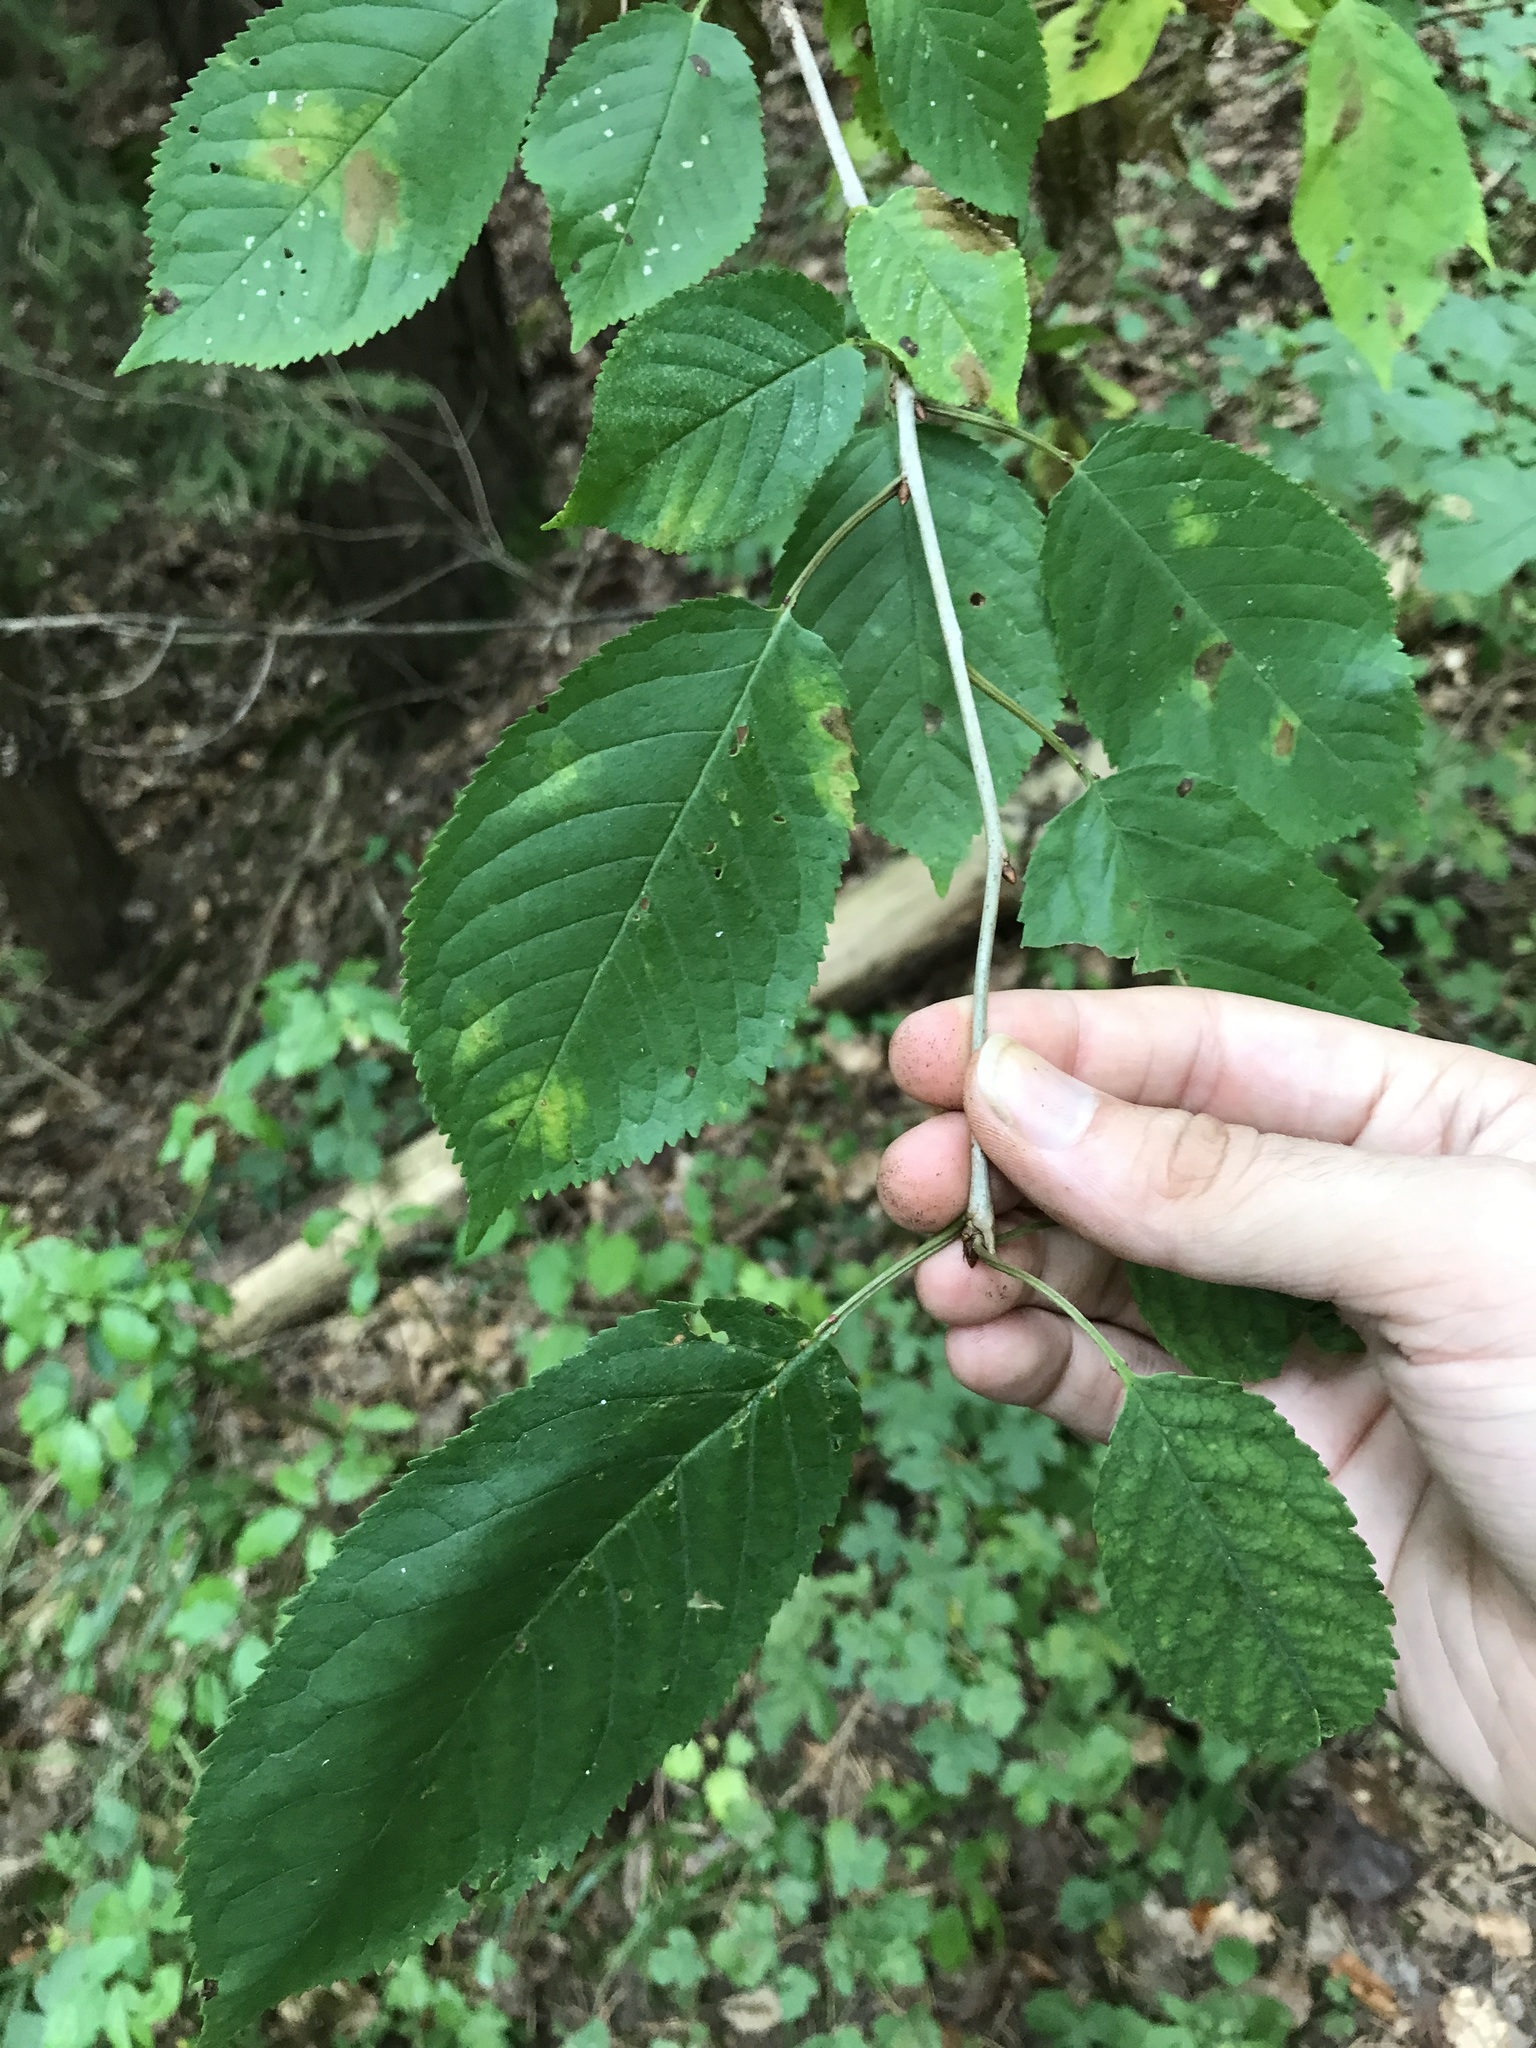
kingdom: Plantae
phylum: Tracheophyta
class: Magnoliopsida
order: Rosales
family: Rosaceae
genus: Prunus
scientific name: Prunus avium
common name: Sweet cherry
